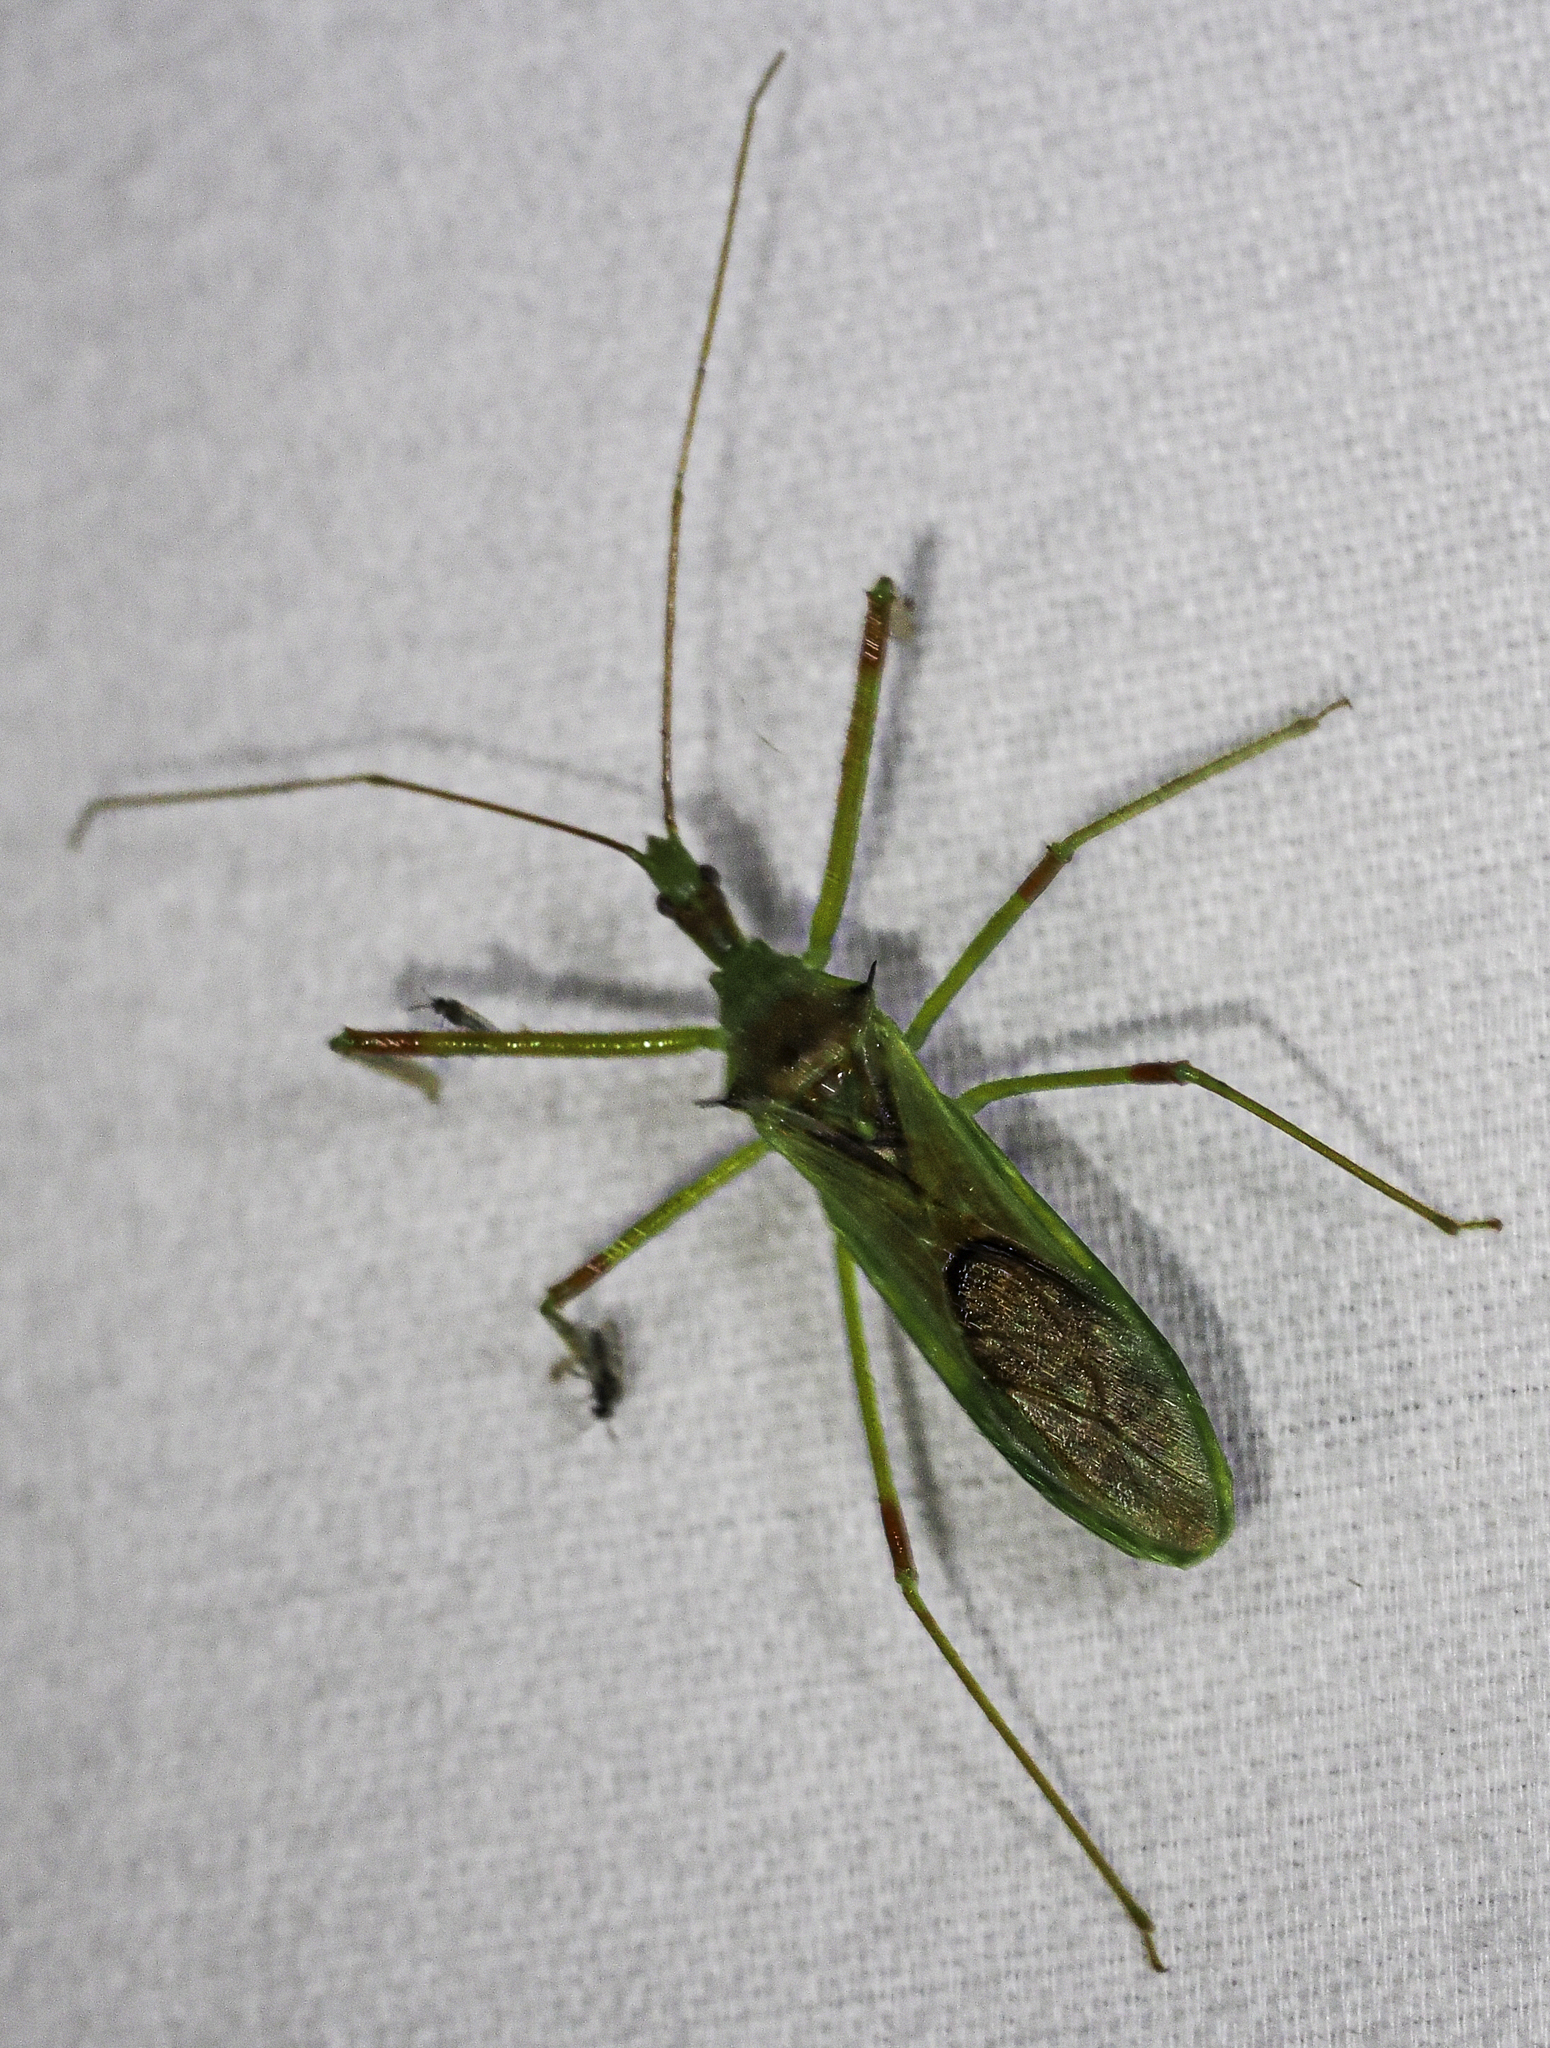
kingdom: Animalia
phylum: Arthropoda
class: Insecta
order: Hemiptera
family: Reduviidae
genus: Zelus
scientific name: Zelus luridus
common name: Pale green assassin bug
